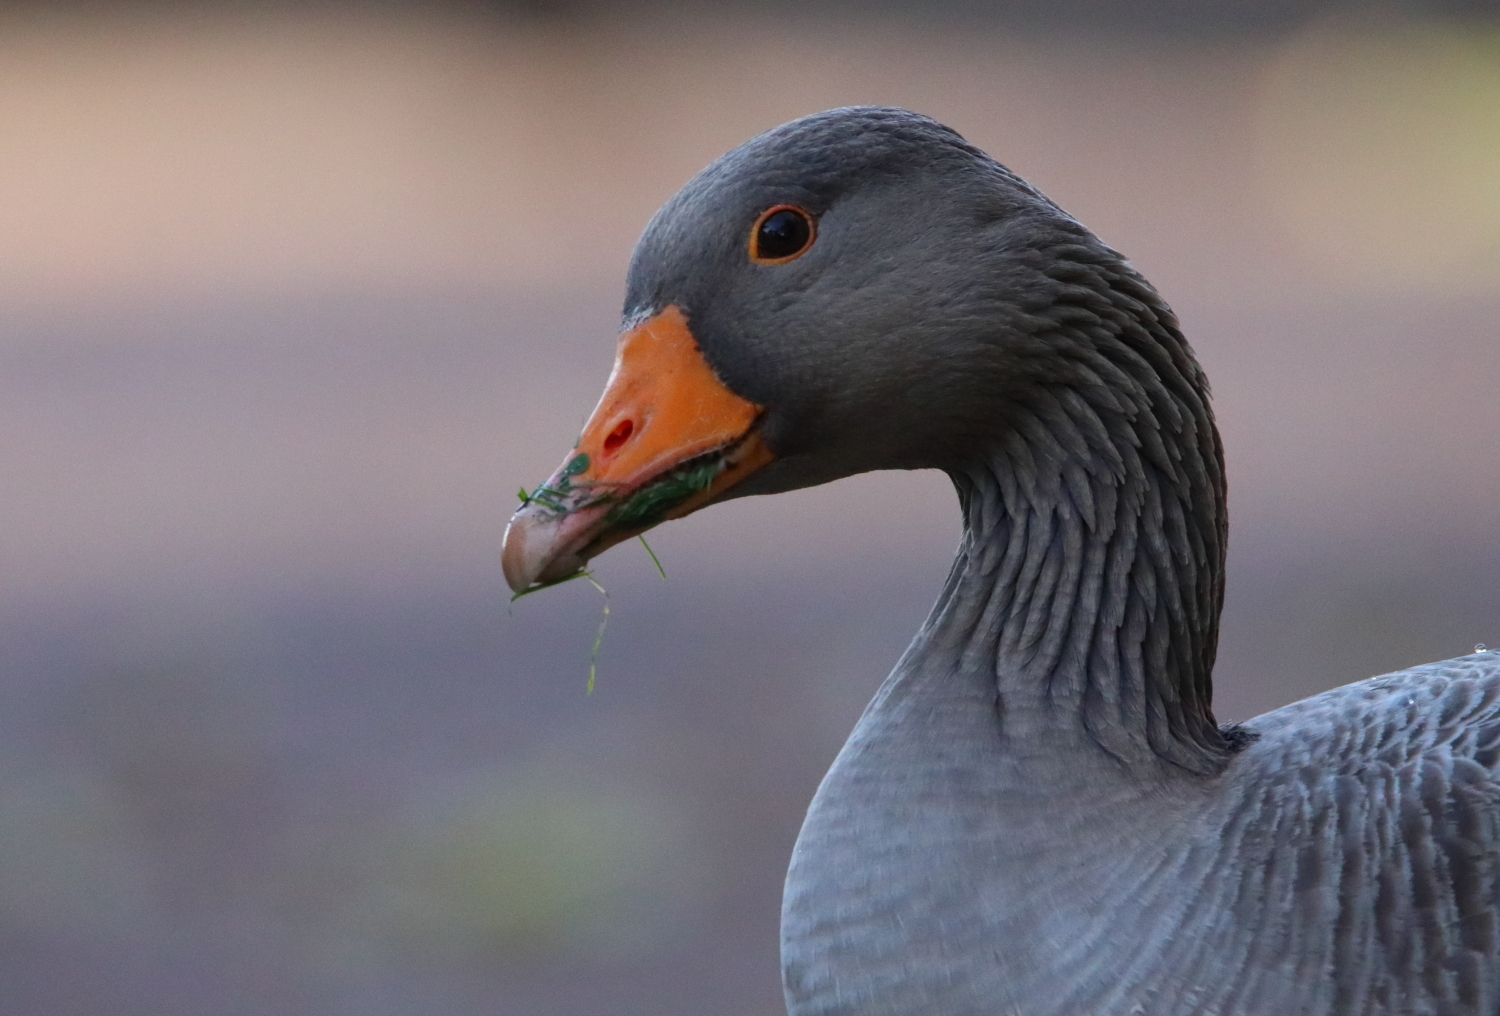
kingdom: Animalia
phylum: Chordata
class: Aves
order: Anseriformes
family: Anatidae
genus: Anser
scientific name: Anser anser
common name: Greylag goose
